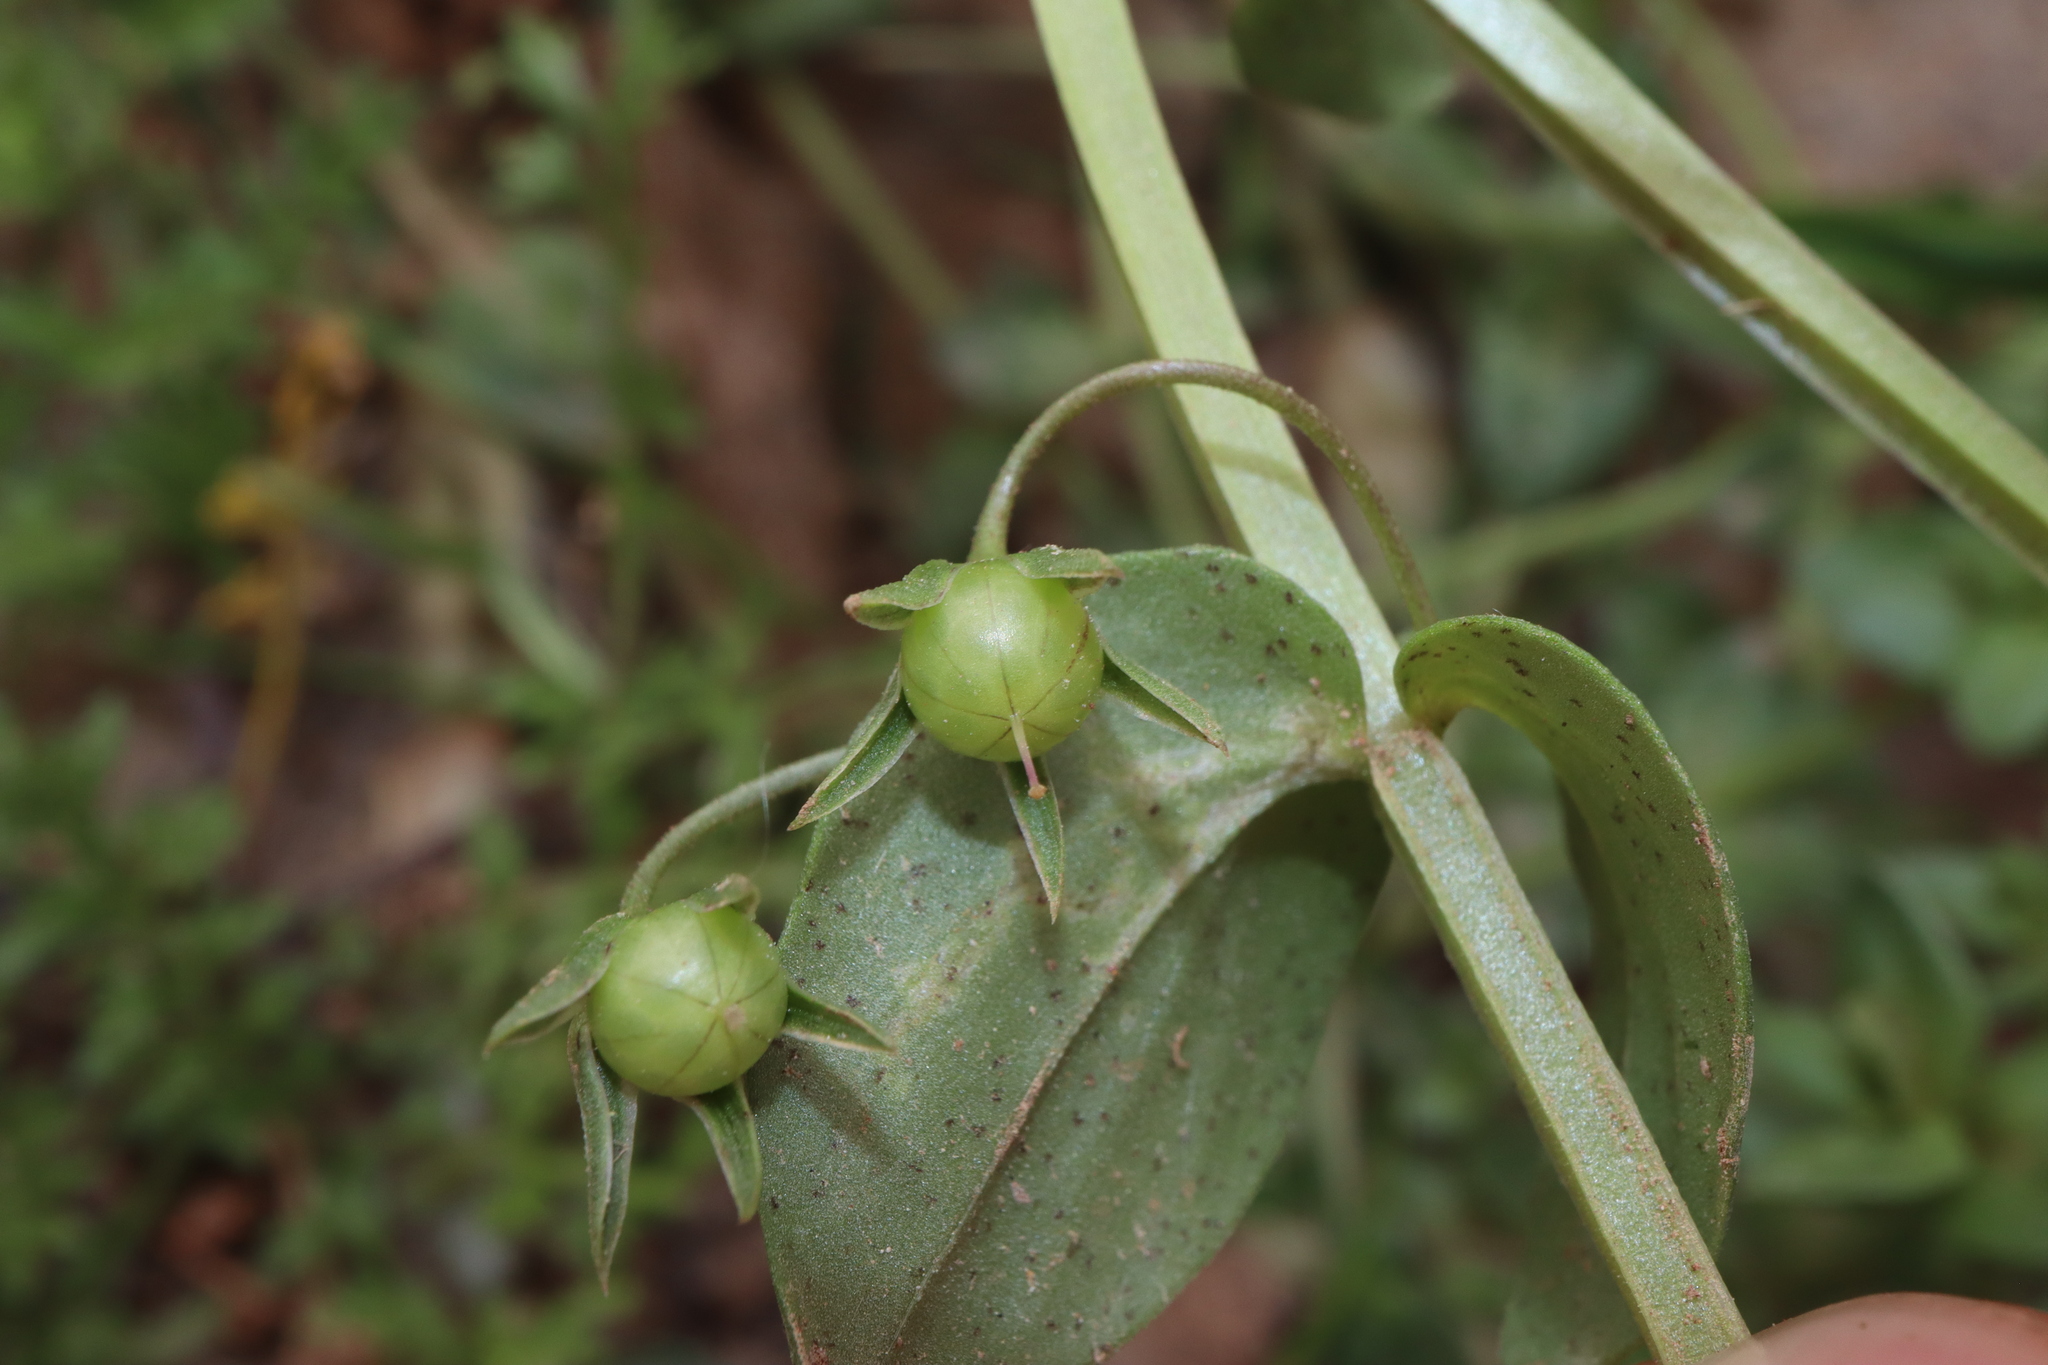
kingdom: Plantae
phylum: Tracheophyta
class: Magnoliopsida
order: Ericales
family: Primulaceae
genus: Lysimachia
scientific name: Lysimachia
